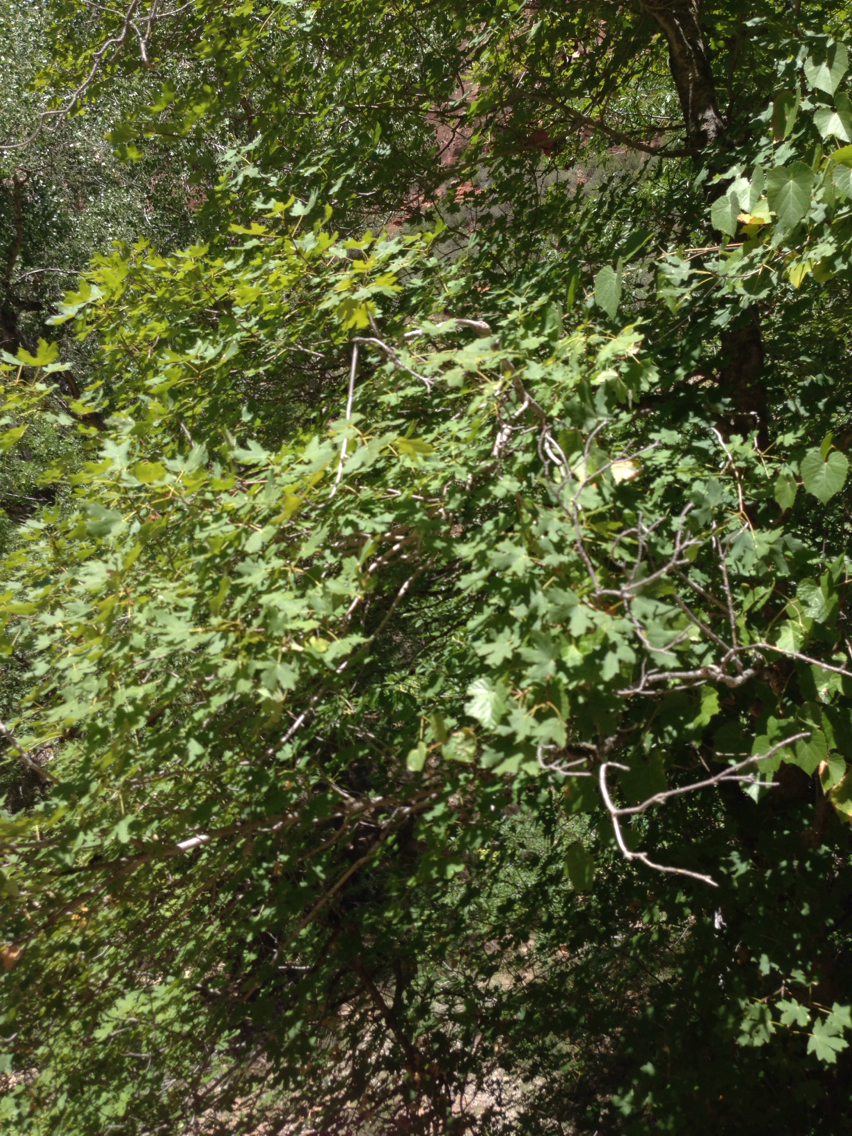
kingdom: Plantae
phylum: Tracheophyta
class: Magnoliopsida
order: Sapindales
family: Sapindaceae
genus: Acer
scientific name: Acer grandidentatum
